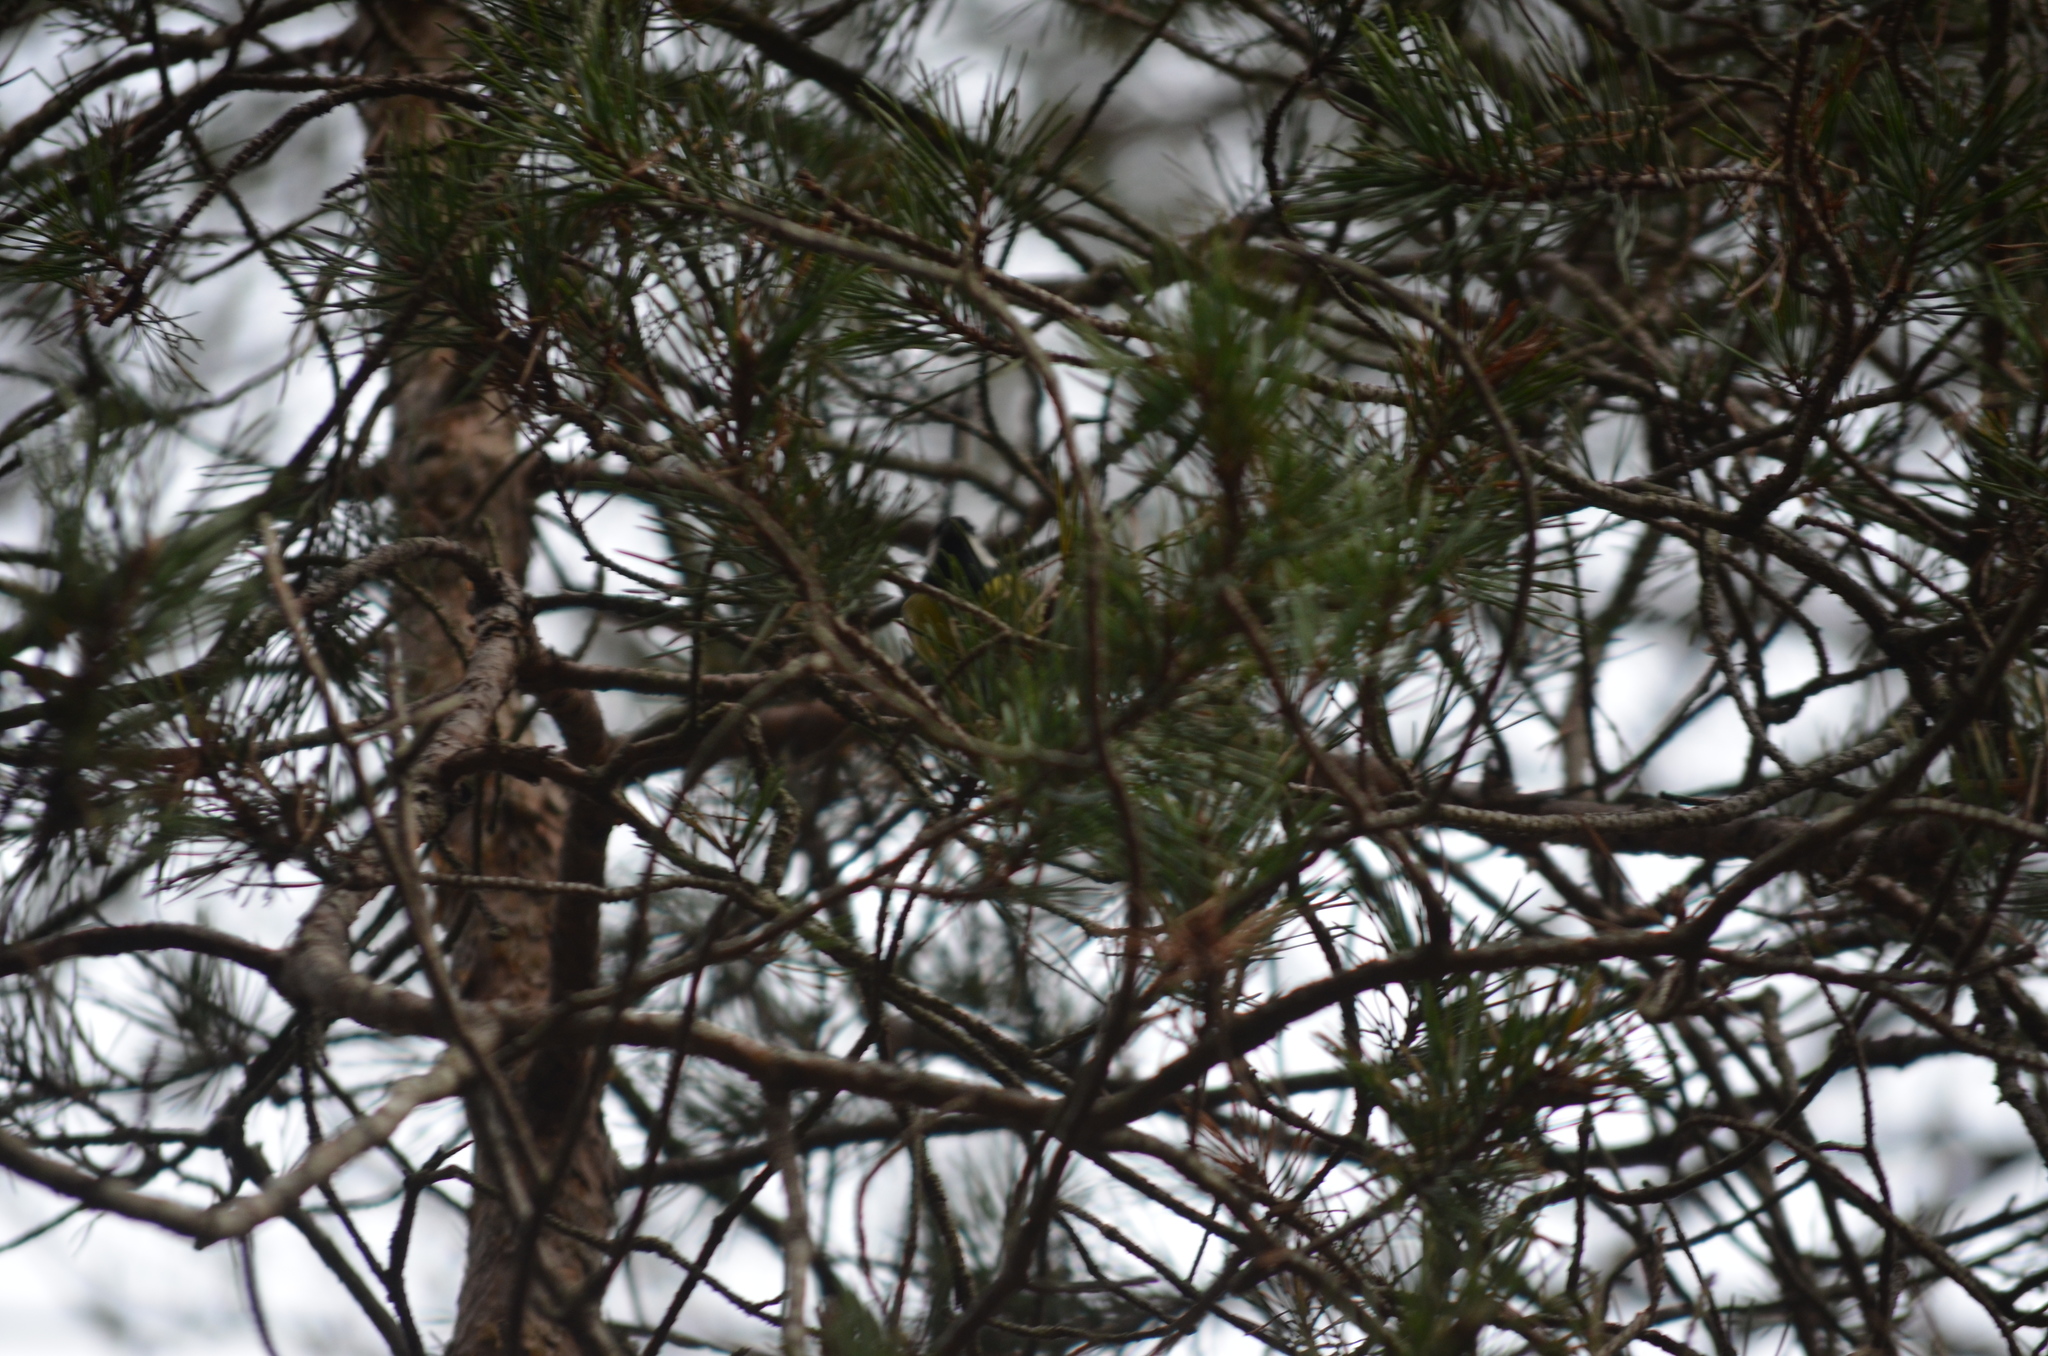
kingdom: Animalia
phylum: Chordata
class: Aves
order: Passeriformes
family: Paridae
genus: Parus
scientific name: Parus major
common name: Great tit
